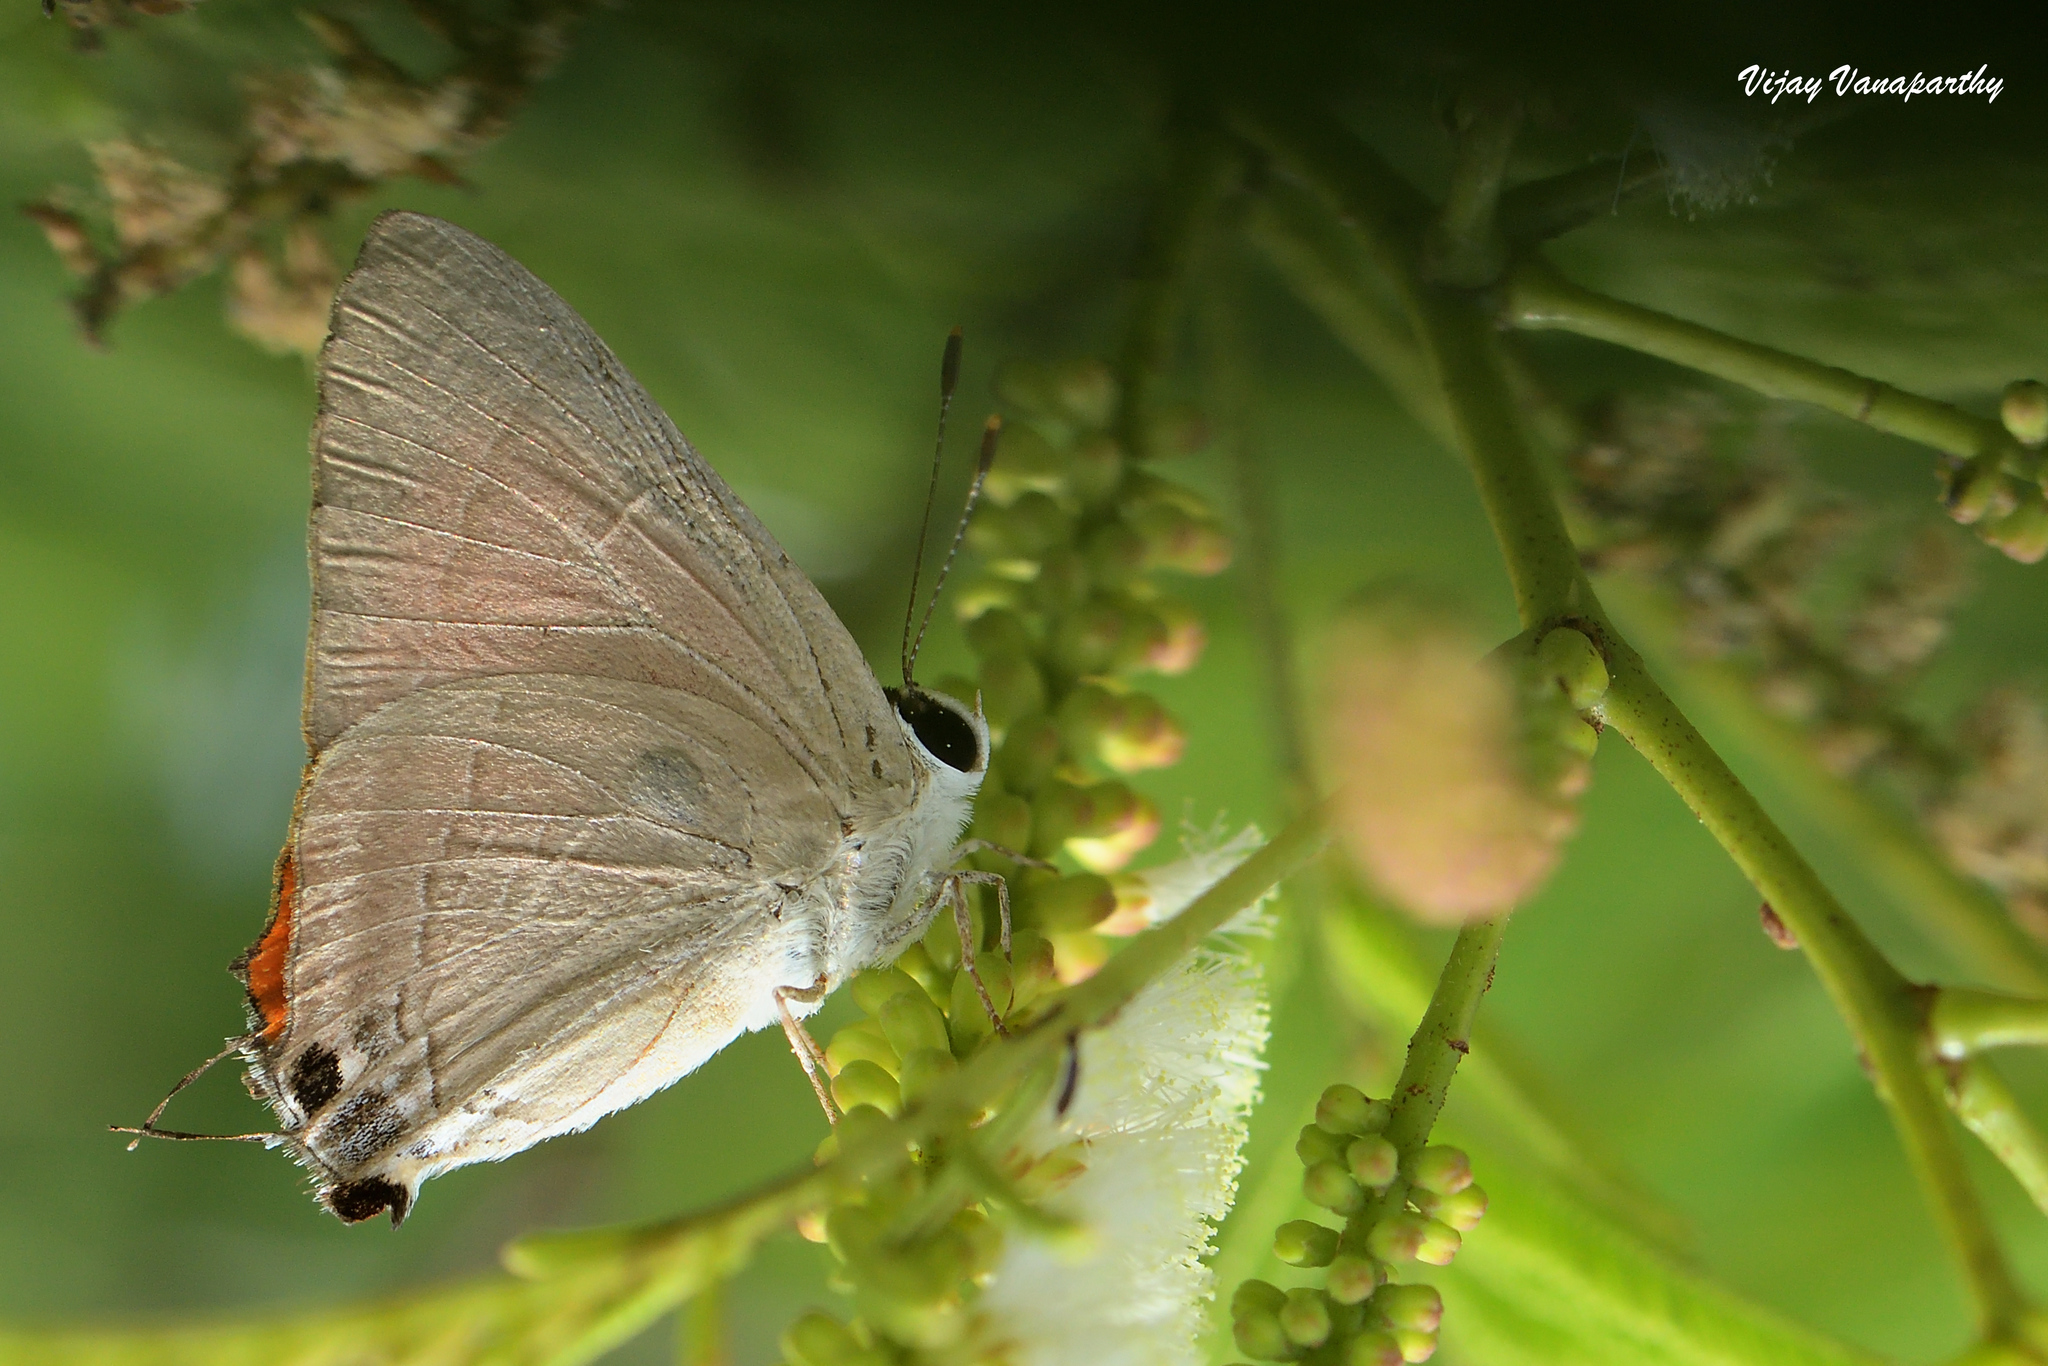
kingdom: Animalia
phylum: Arthropoda
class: Insecta
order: Lepidoptera
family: Lycaenidae
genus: Rapala
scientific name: Rapala iarbus
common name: Common red flash
